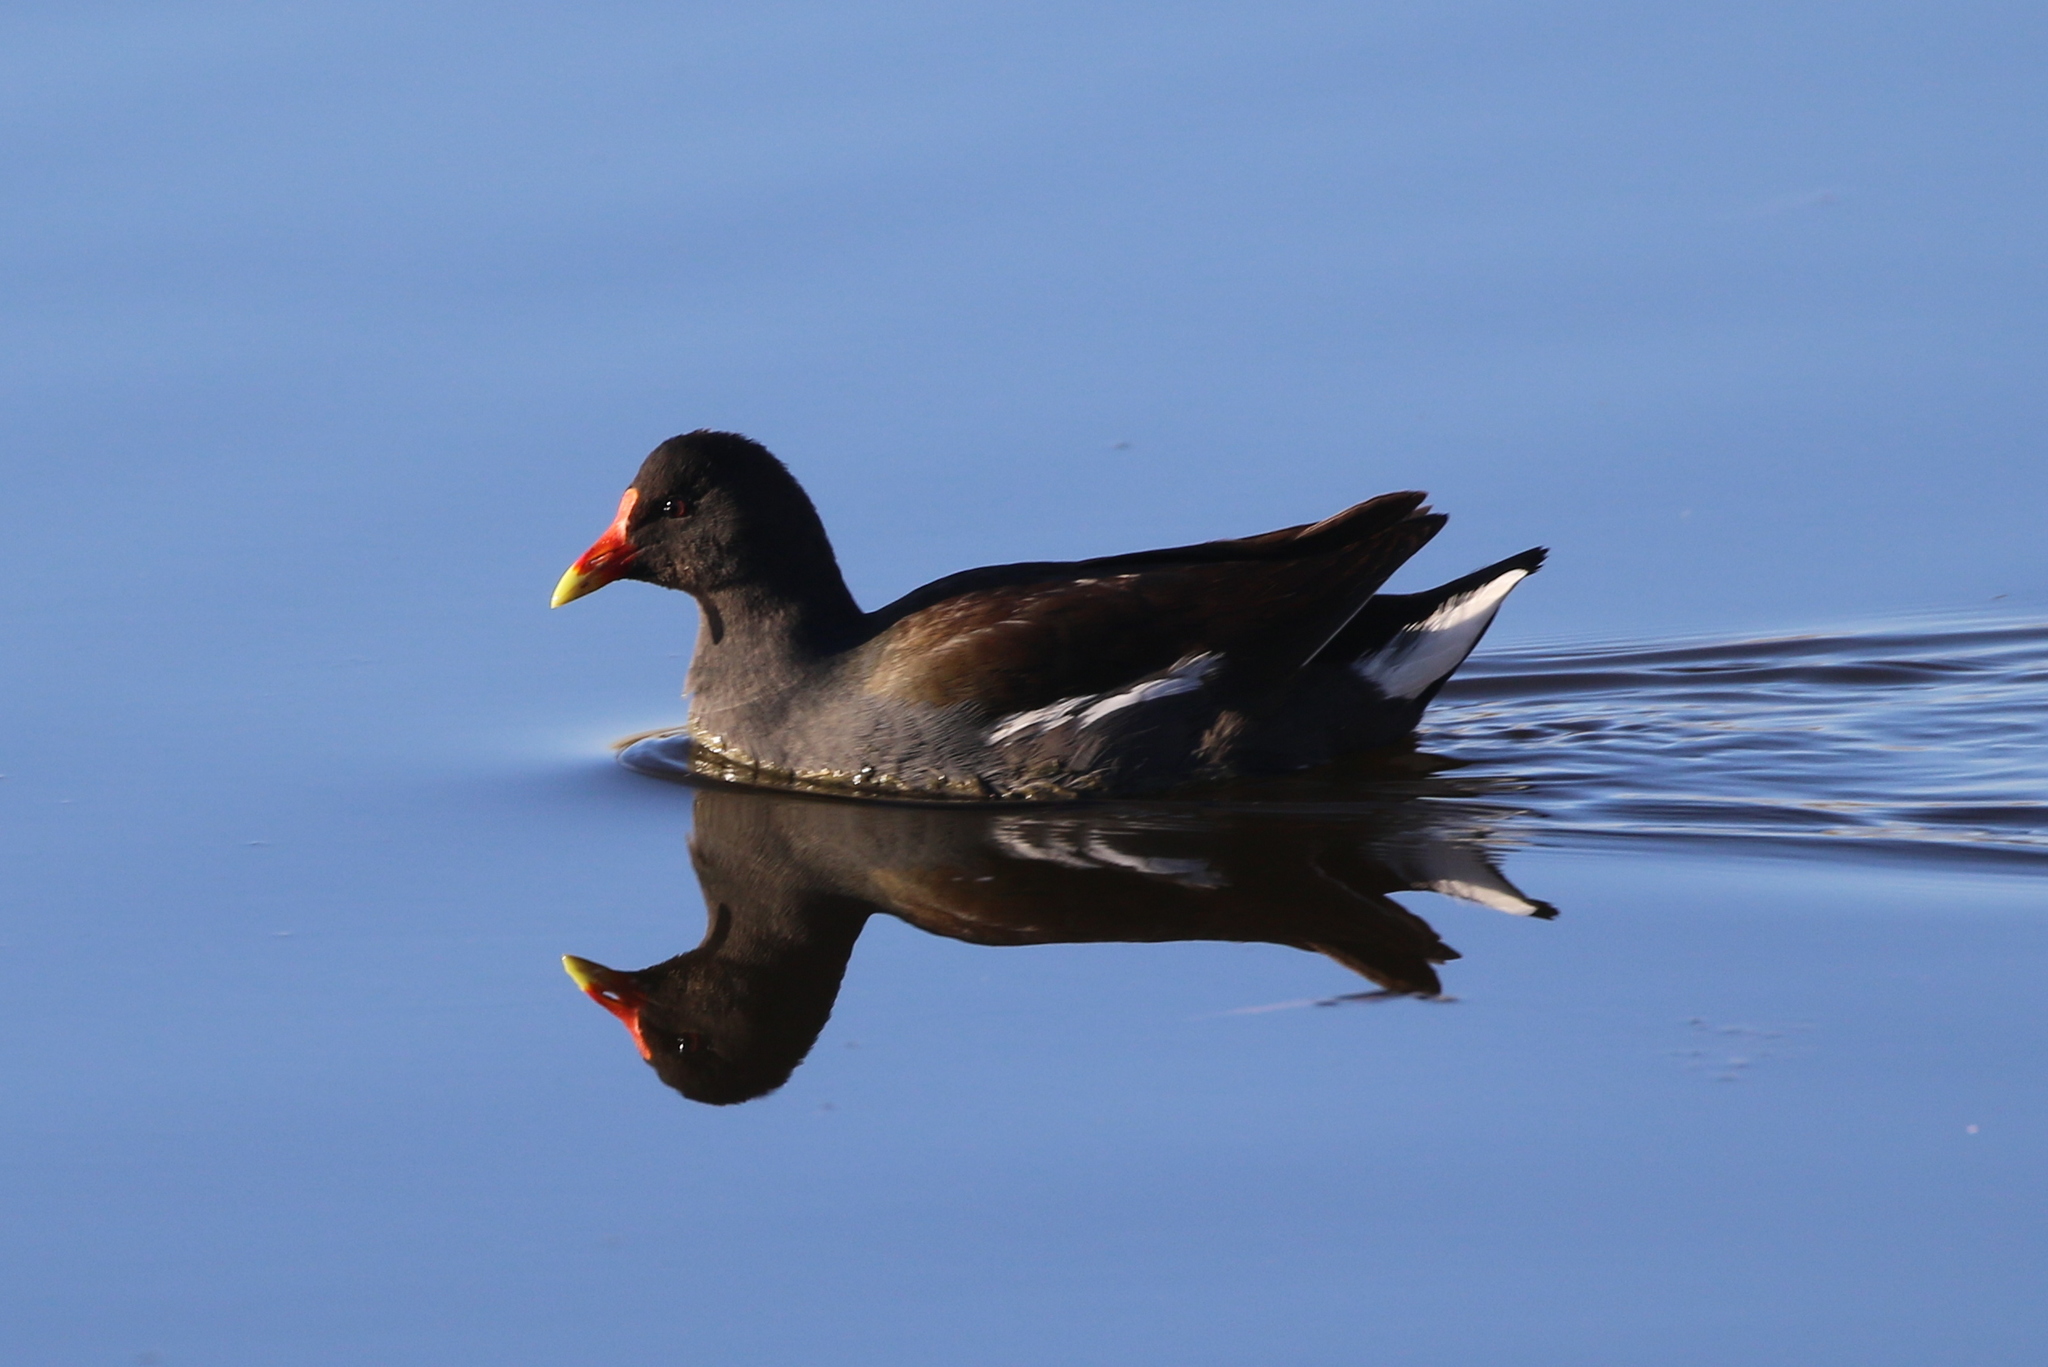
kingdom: Animalia
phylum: Chordata
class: Aves
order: Gruiformes
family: Rallidae
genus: Gallinula
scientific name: Gallinula chloropus
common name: Common moorhen
